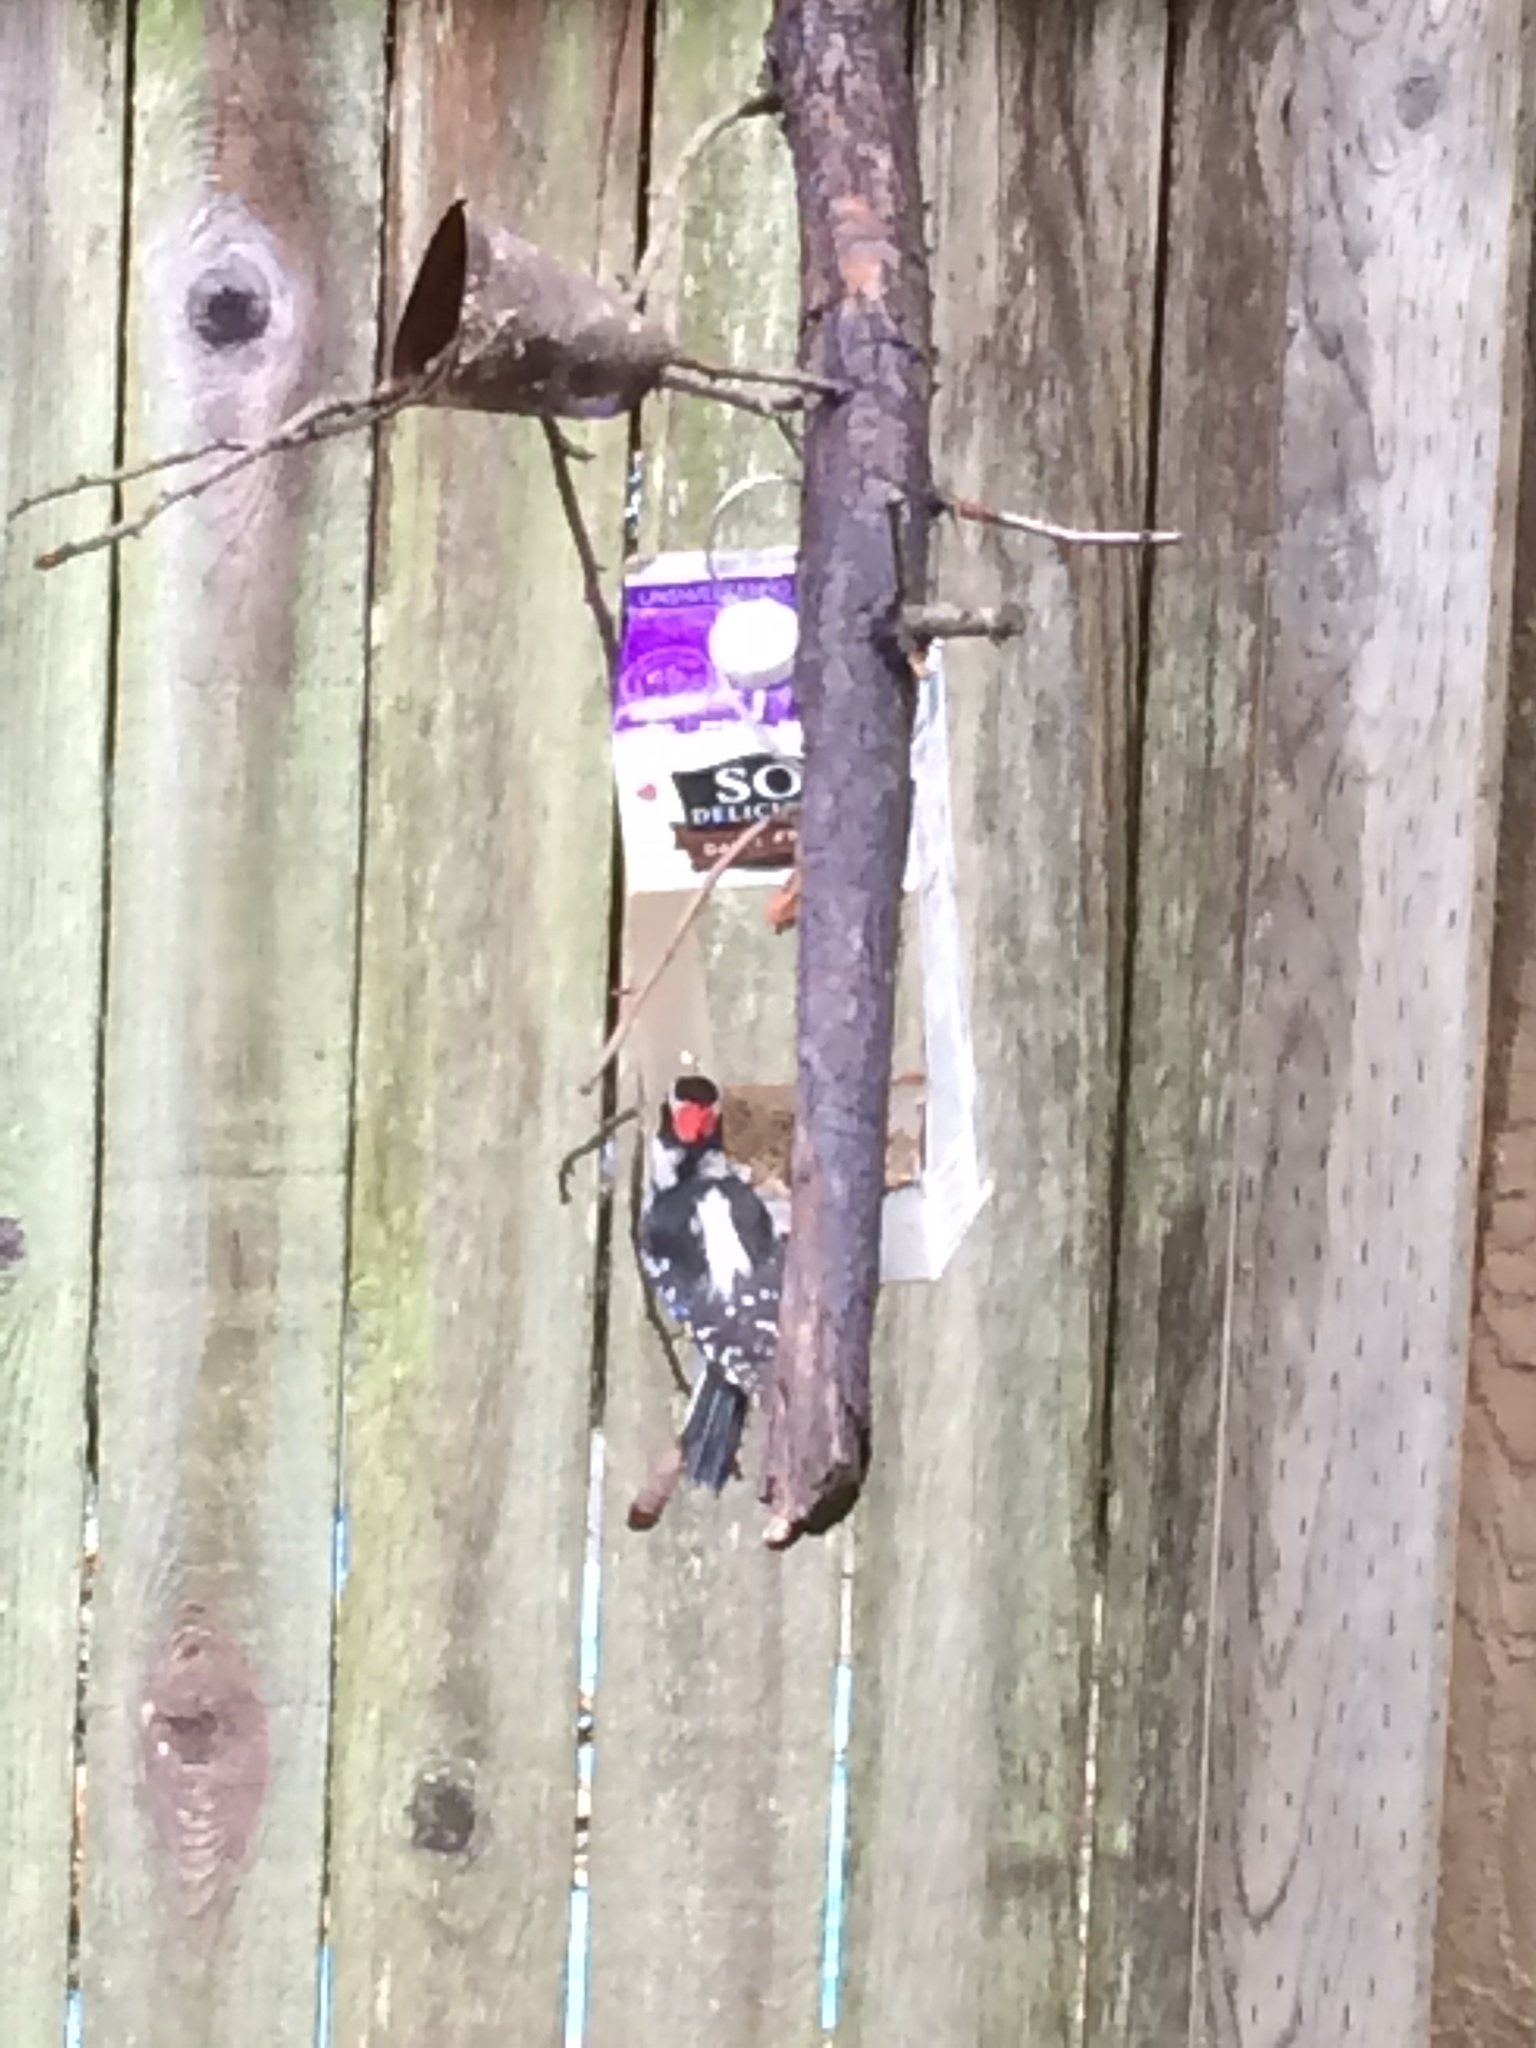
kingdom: Animalia
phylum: Chordata
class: Aves
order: Piciformes
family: Picidae
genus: Dryobates
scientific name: Dryobates pubescens
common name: Downy woodpecker
